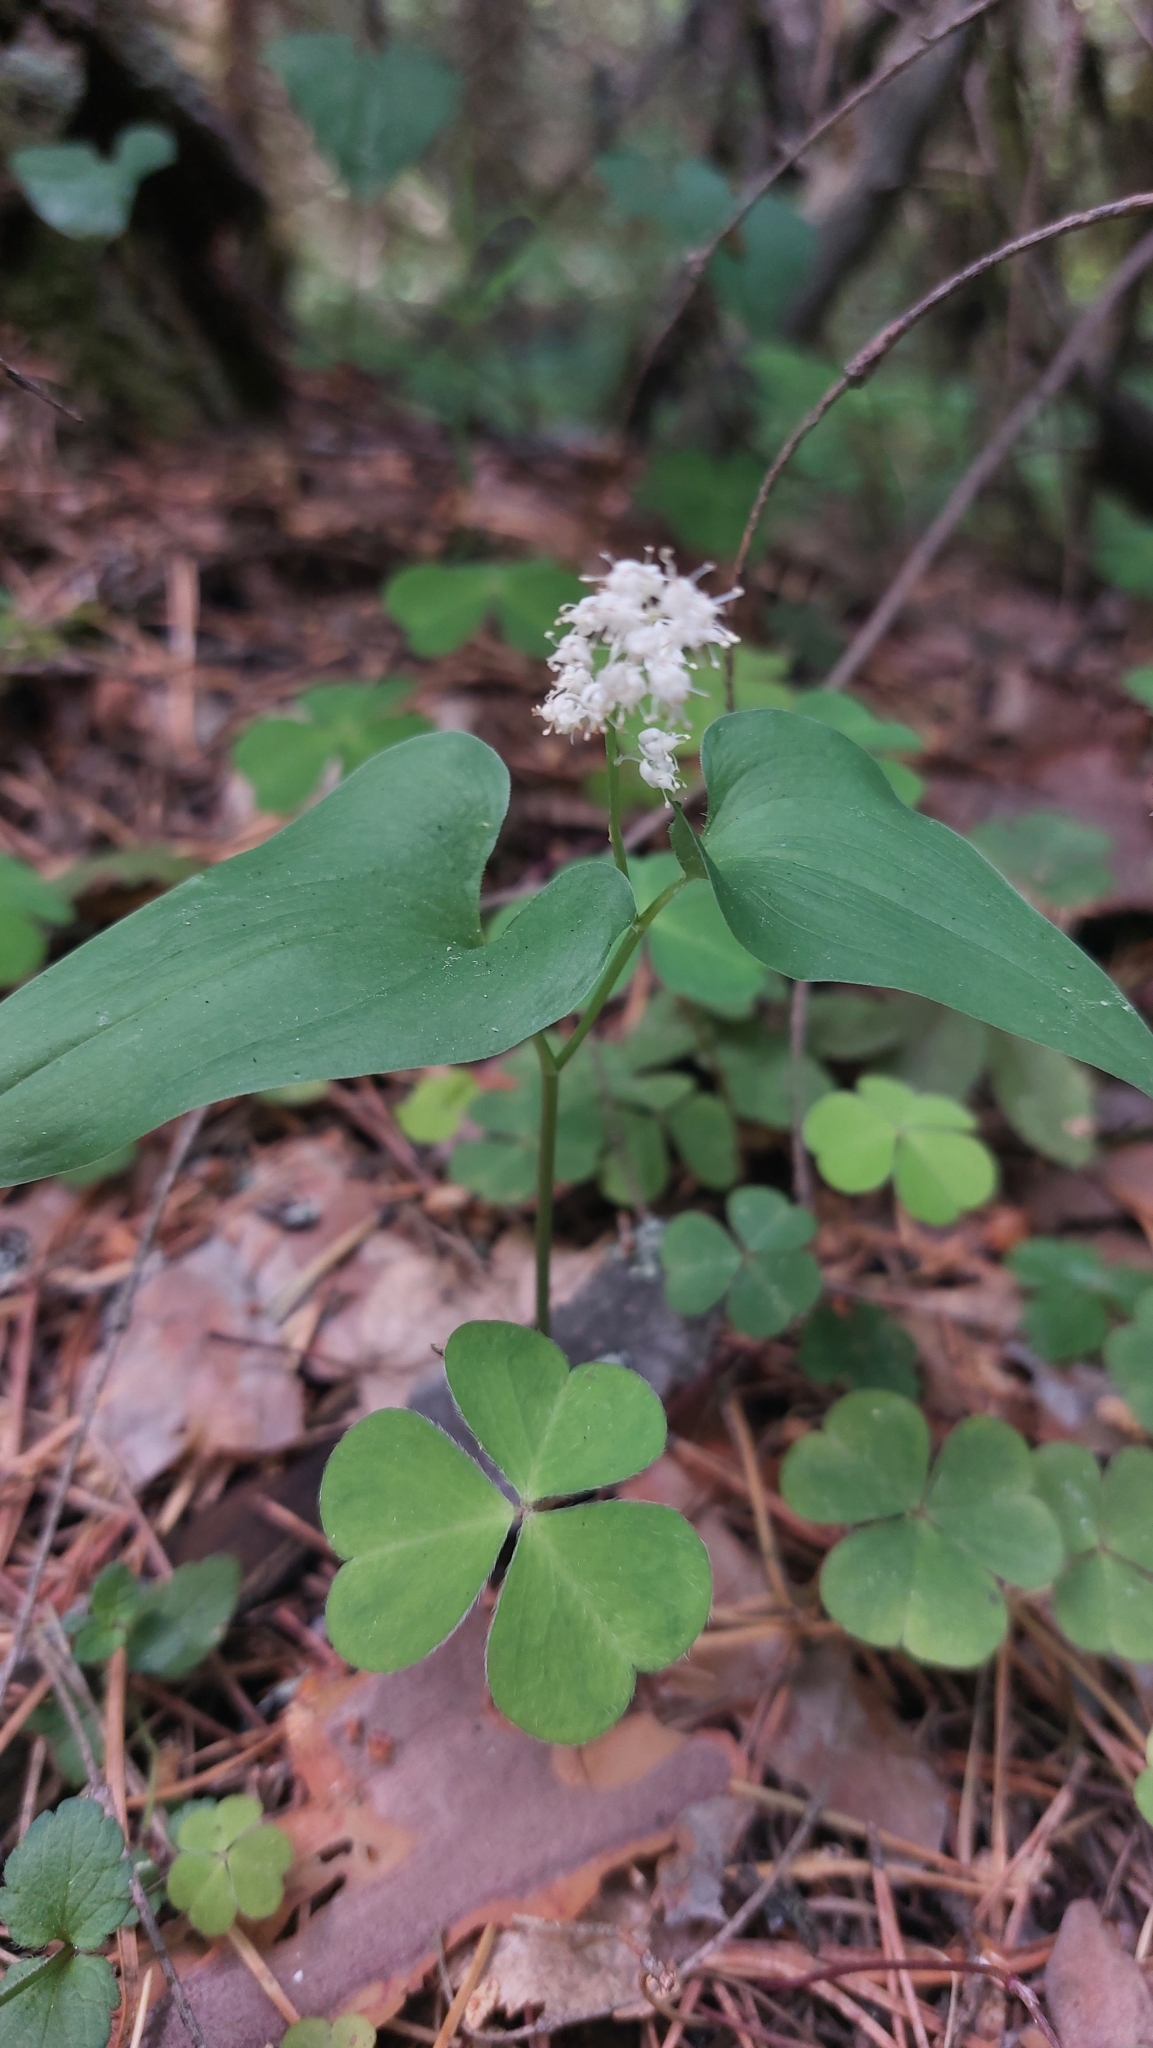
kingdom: Plantae
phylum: Tracheophyta
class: Liliopsida
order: Asparagales
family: Asparagaceae
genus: Maianthemum
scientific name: Maianthemum bifolium
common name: May lily
